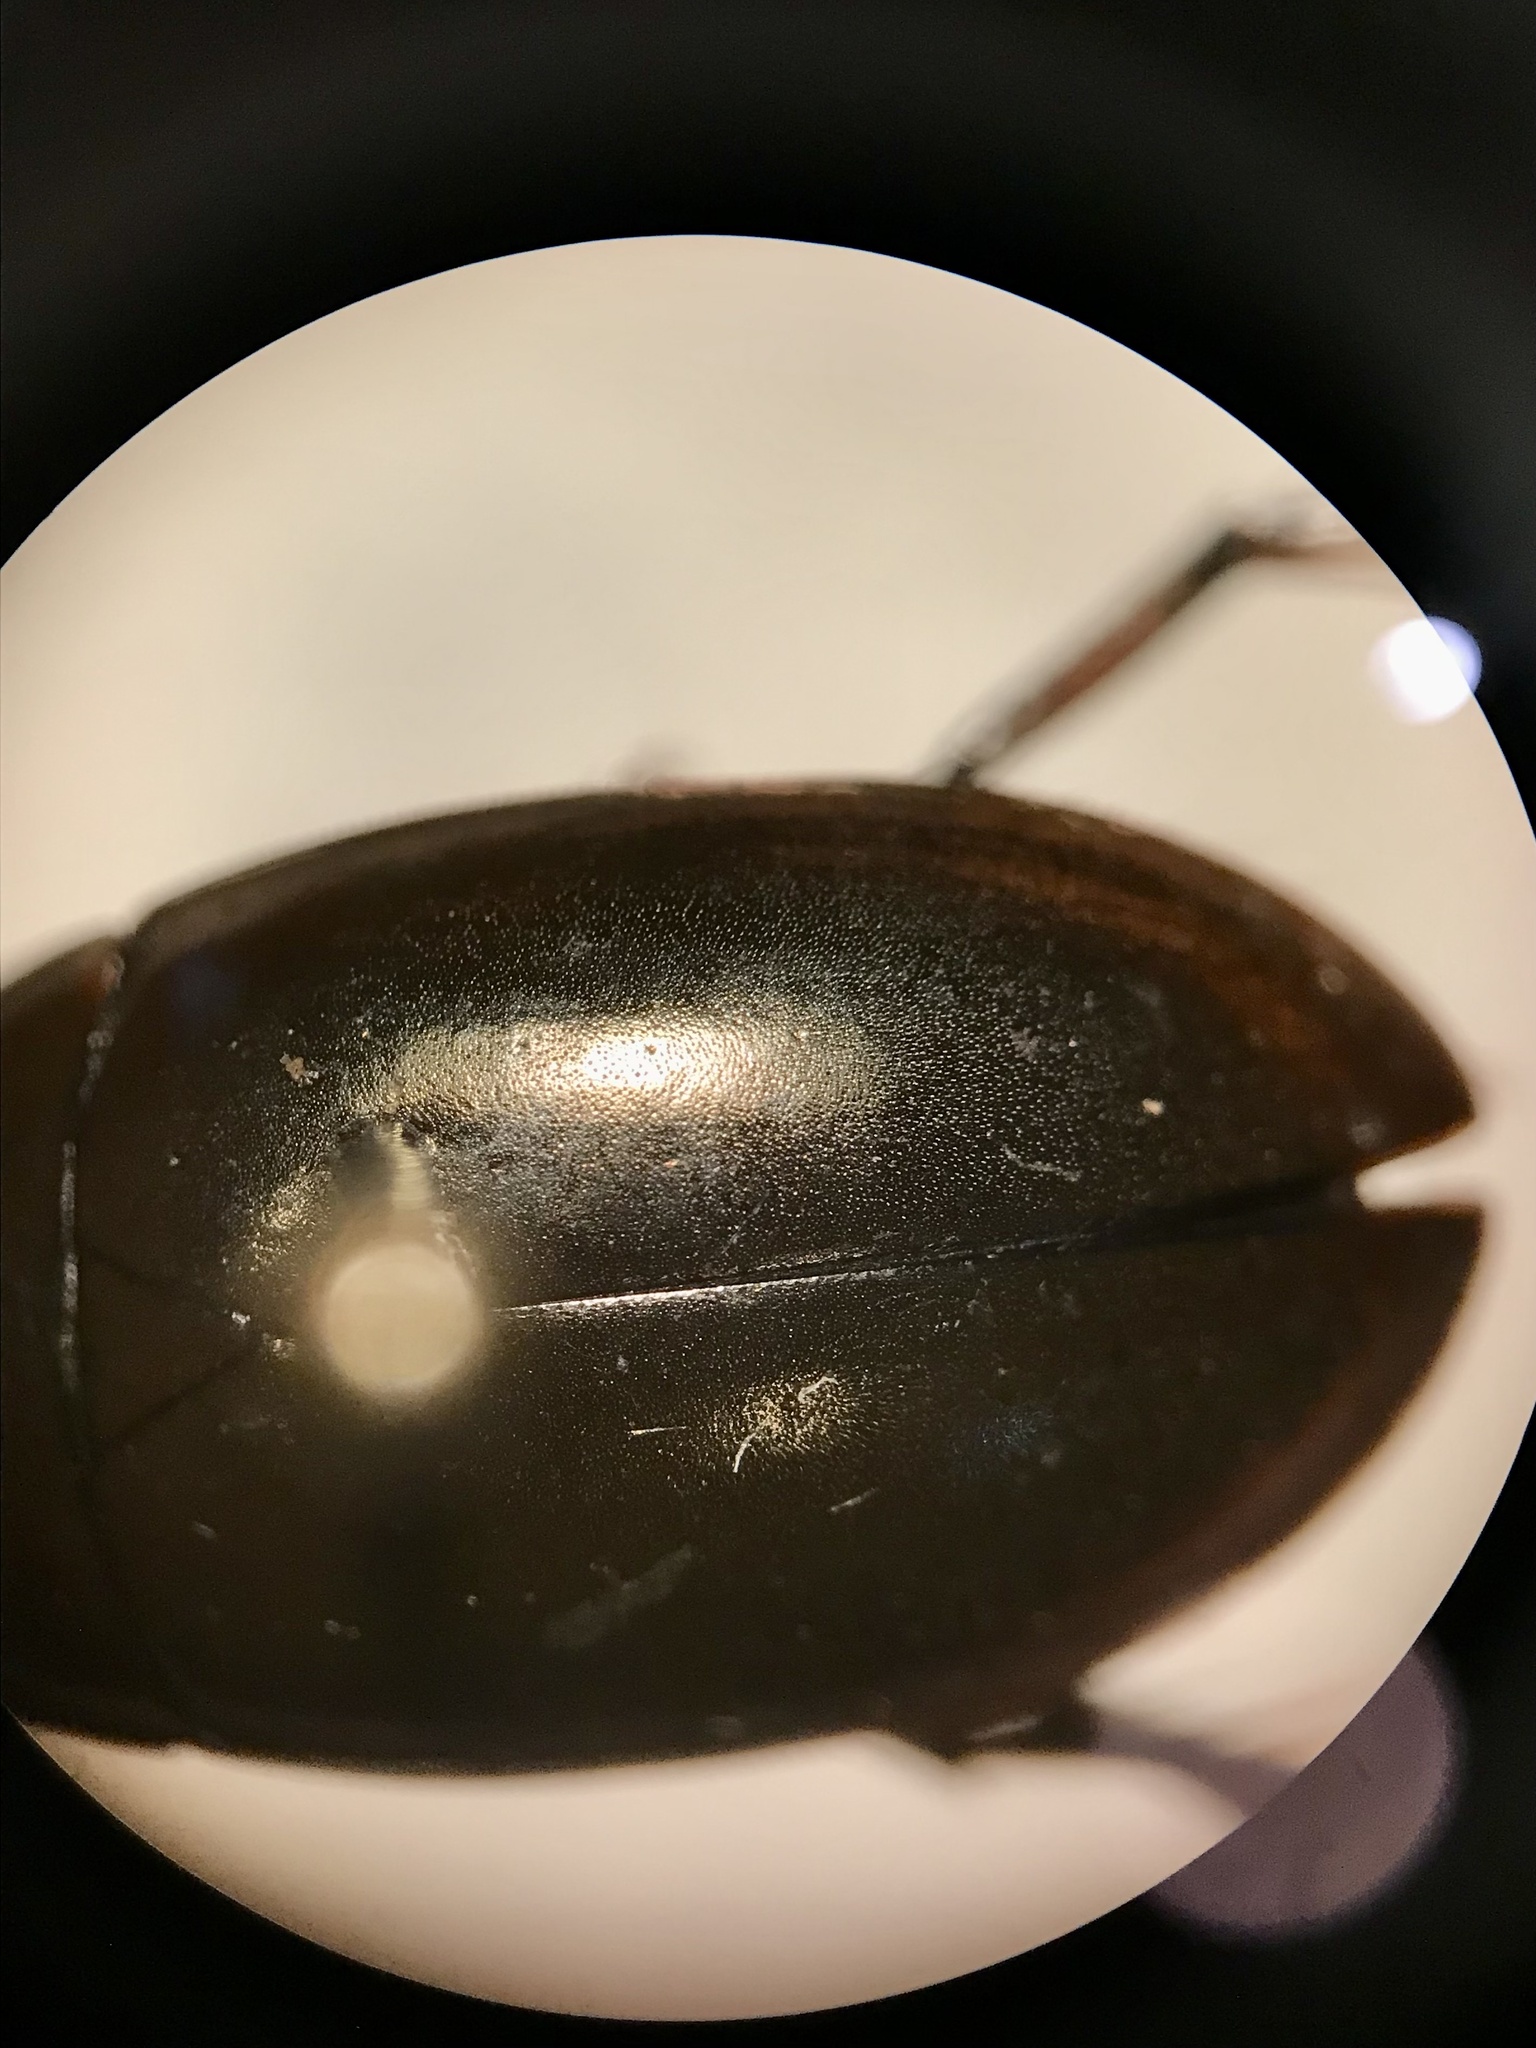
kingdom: Animalia
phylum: Arthropoda
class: Insecta
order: Coleoptera
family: Hydrophilidae
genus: Tropisternus
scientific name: Tropisternus mixtus
